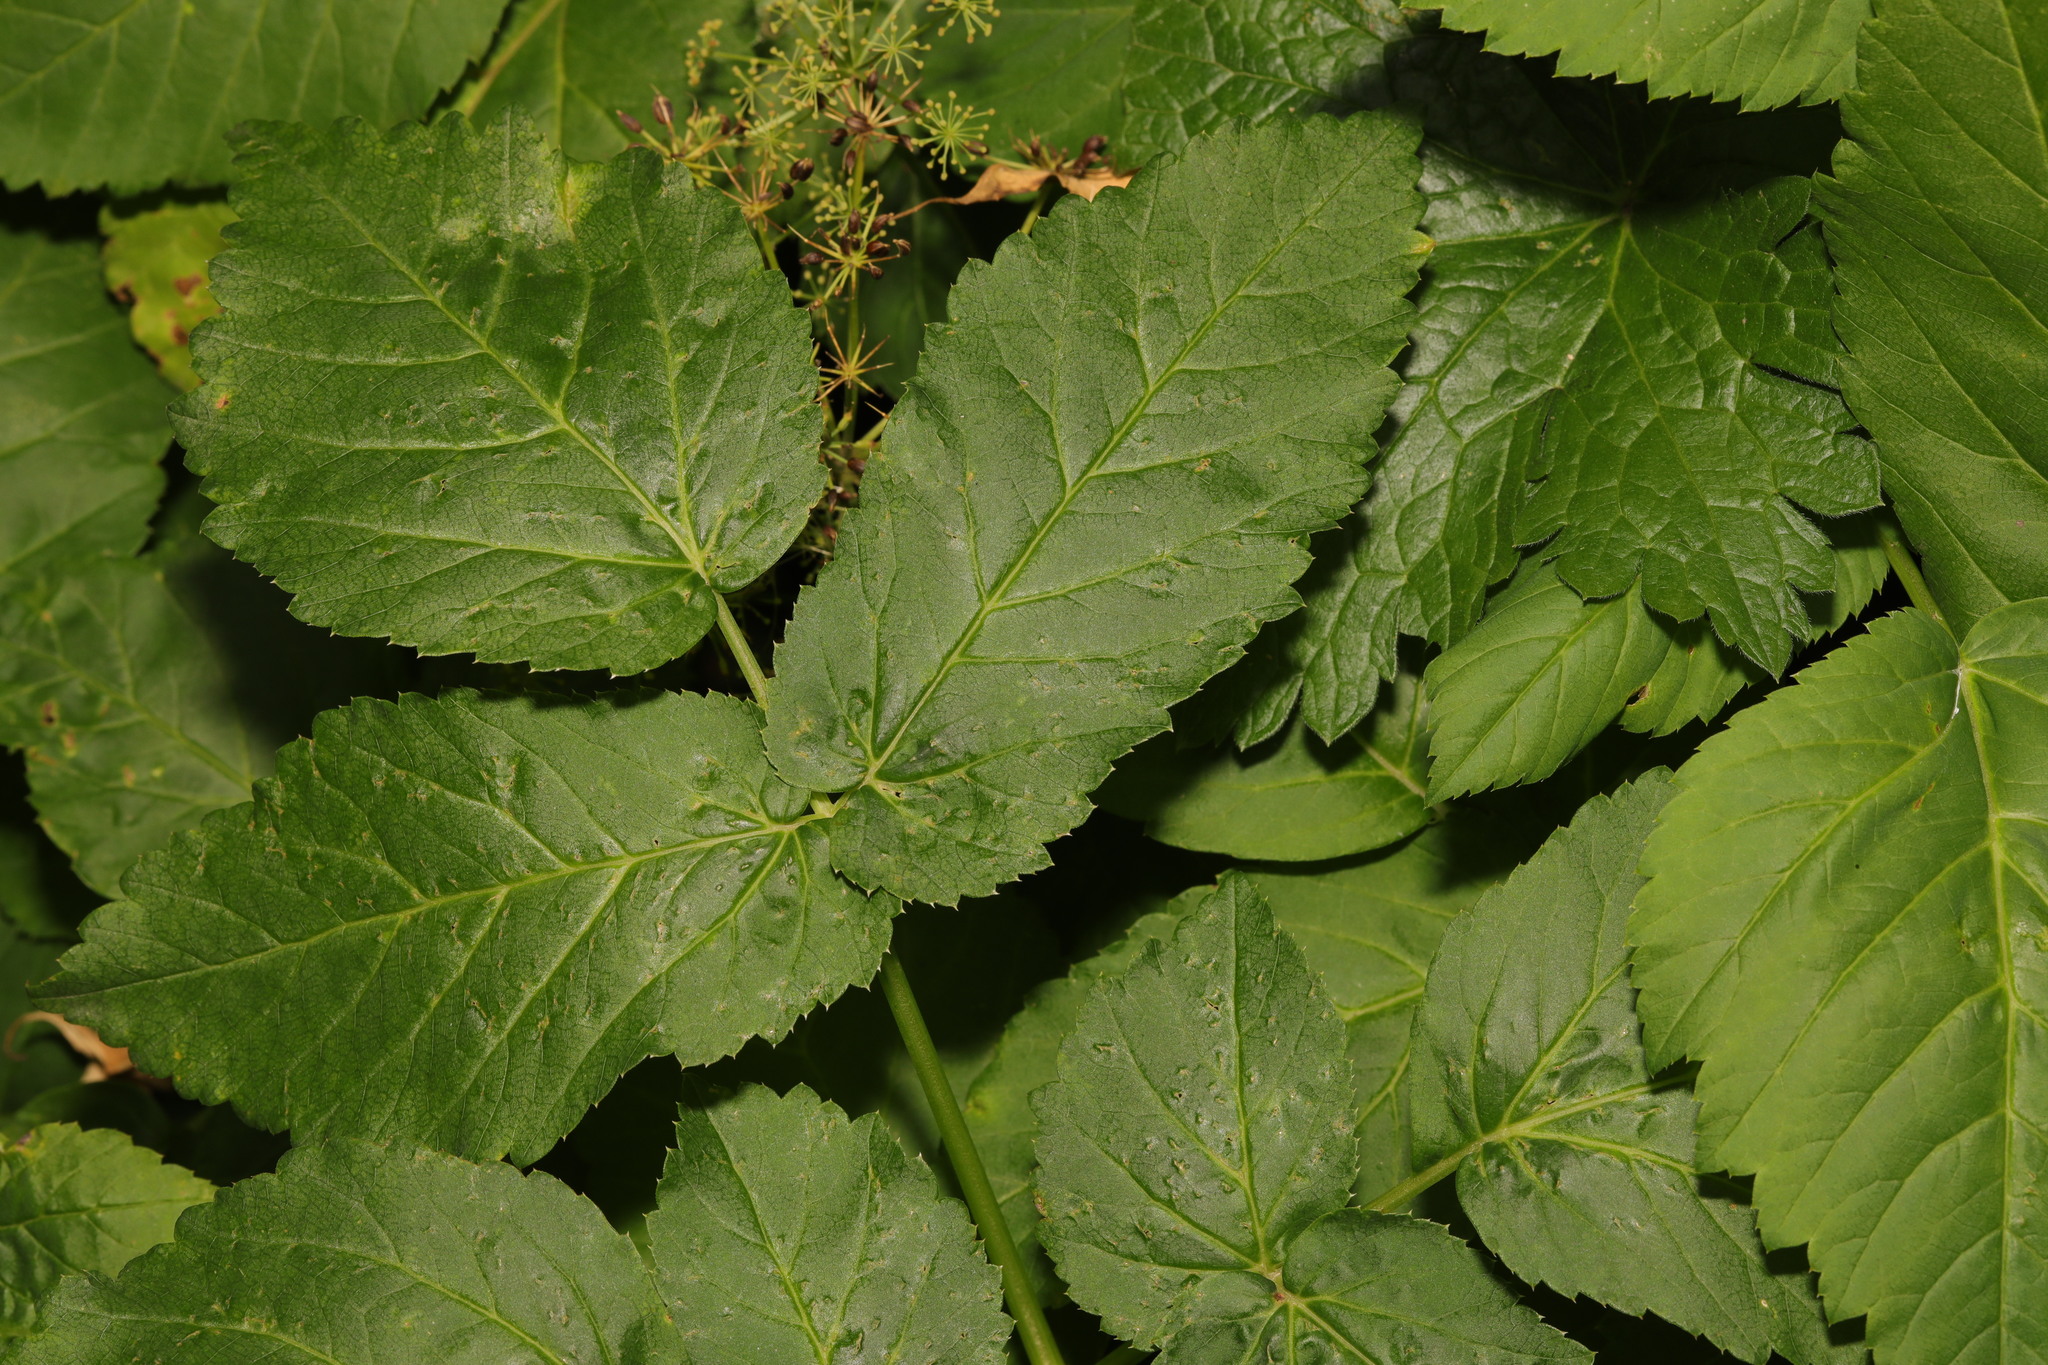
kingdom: Plantae
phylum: Tracheophyta
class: Magnoliopsida
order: Apiales
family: Apiaceae
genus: Aegopodium
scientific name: Aegopodium podagraria
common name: Ground-elder
